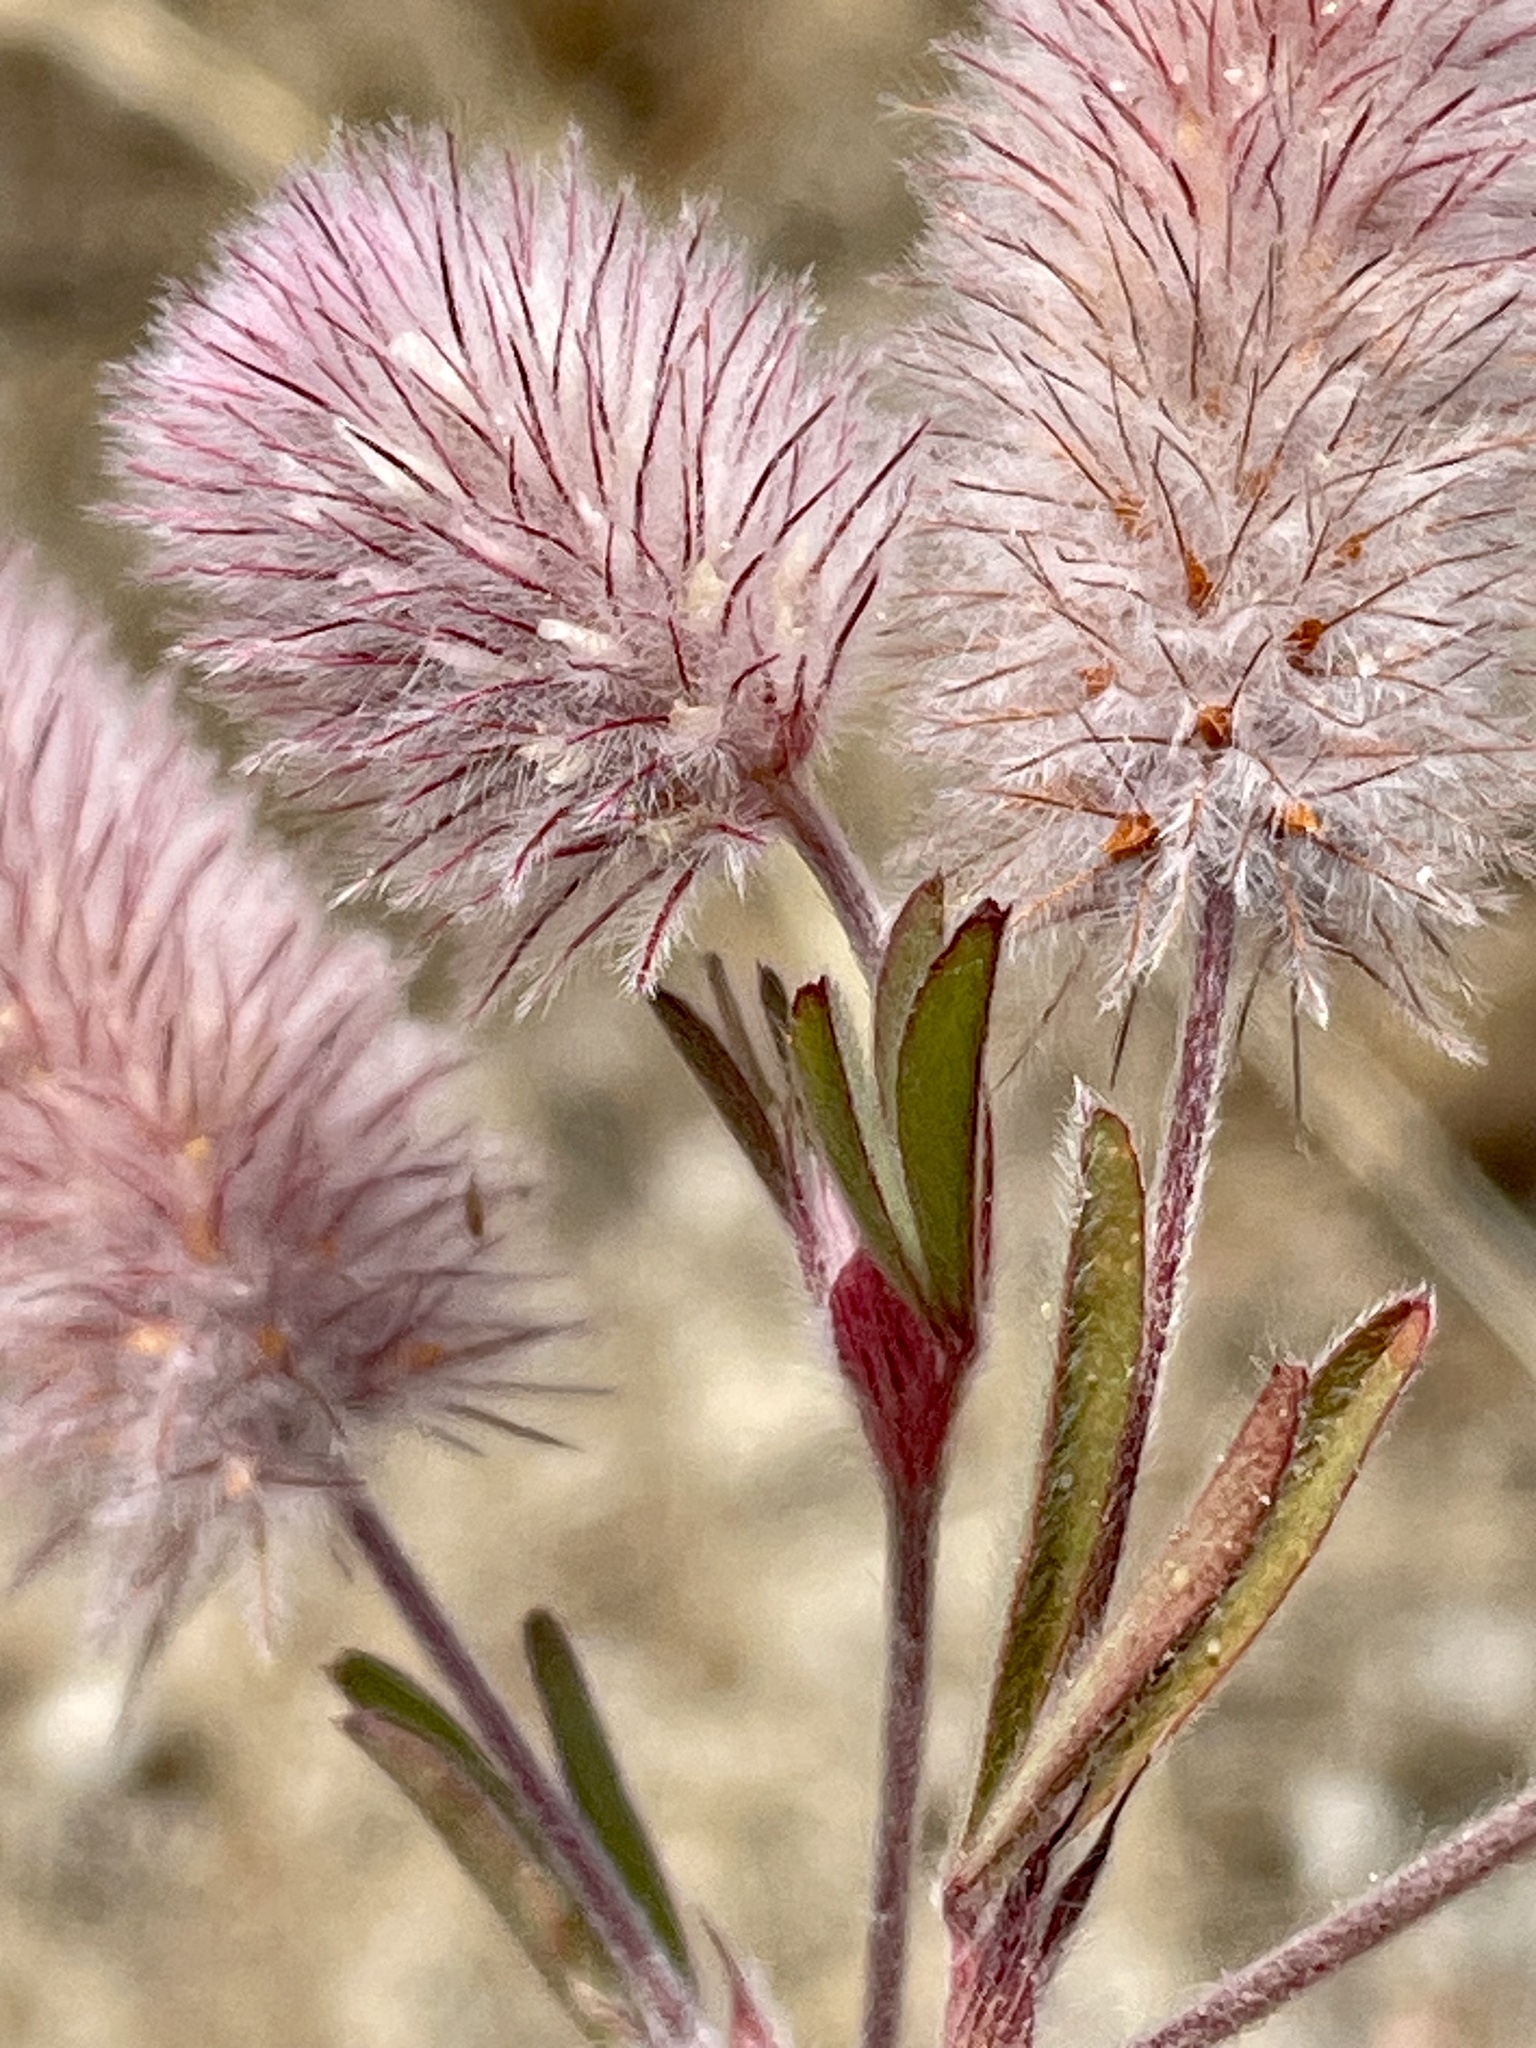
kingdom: Plantae
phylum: Tracheophyta
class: Magnoliopsida
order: Fabales
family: Fabaceae
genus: Trifolium
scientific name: Trifolium arvense
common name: Hare's-foot clover
